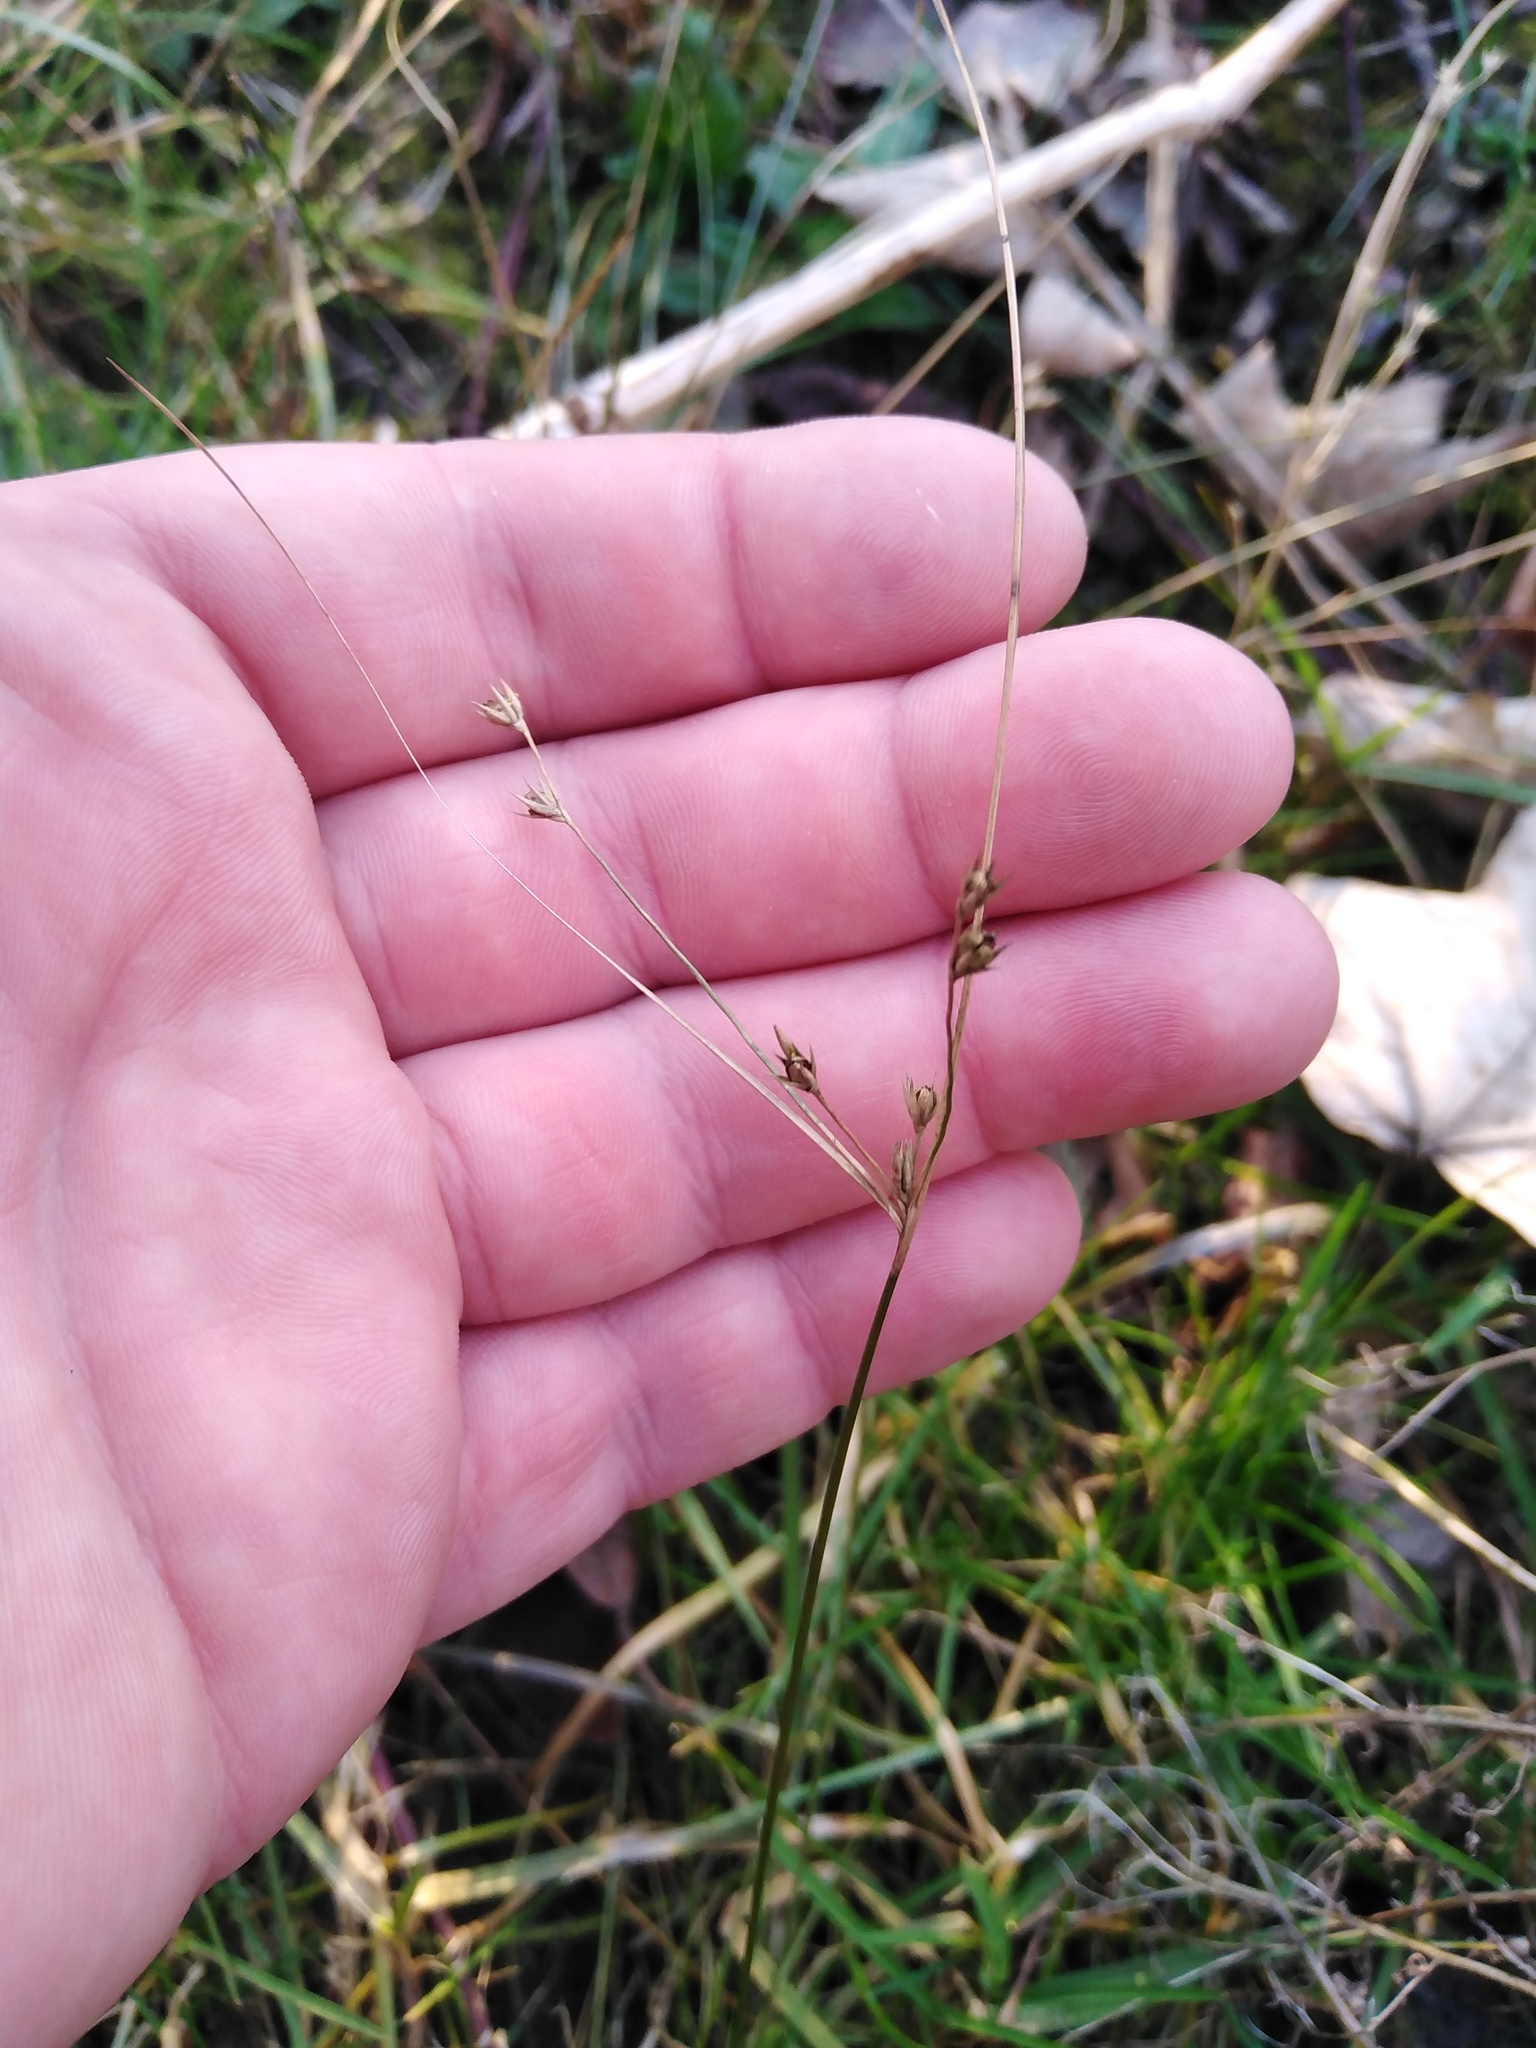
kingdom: Plantae
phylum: Tracheophyta
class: Liliopsida
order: Poales
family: Juncaceae
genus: Juncus
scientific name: Juncus tenuis
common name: Slender rush
